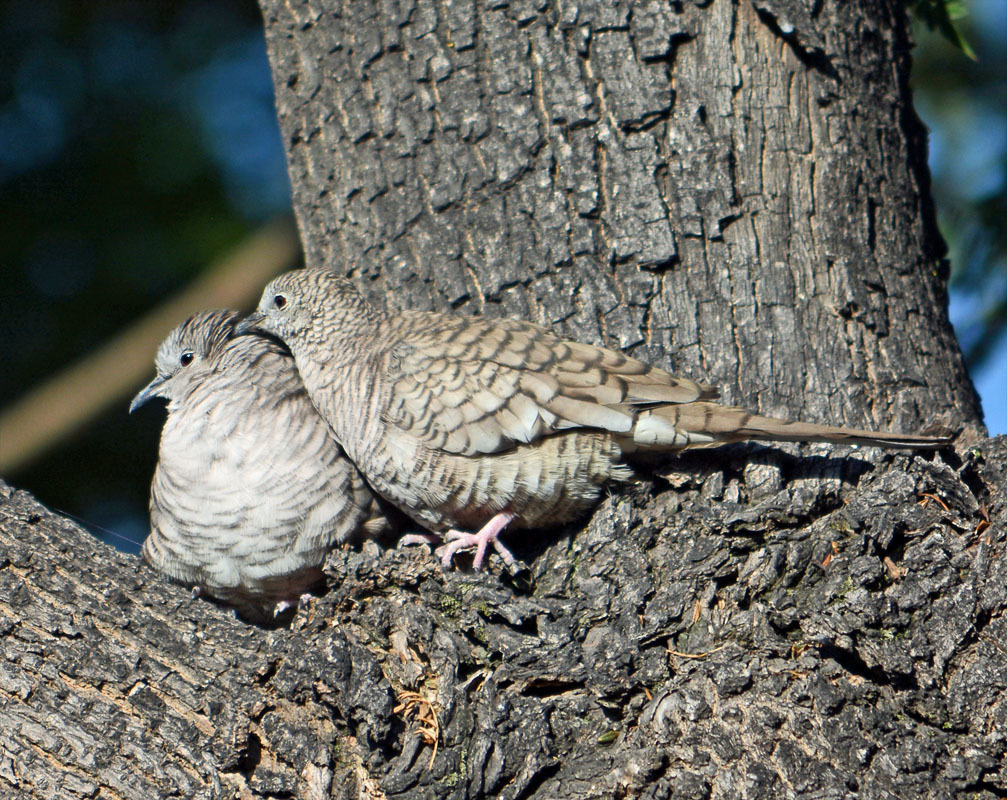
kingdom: Animalia
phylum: Chordata
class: Aves
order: Columbiformes
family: Columbidae
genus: Columbina
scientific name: Columbina inca
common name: Inca dove
